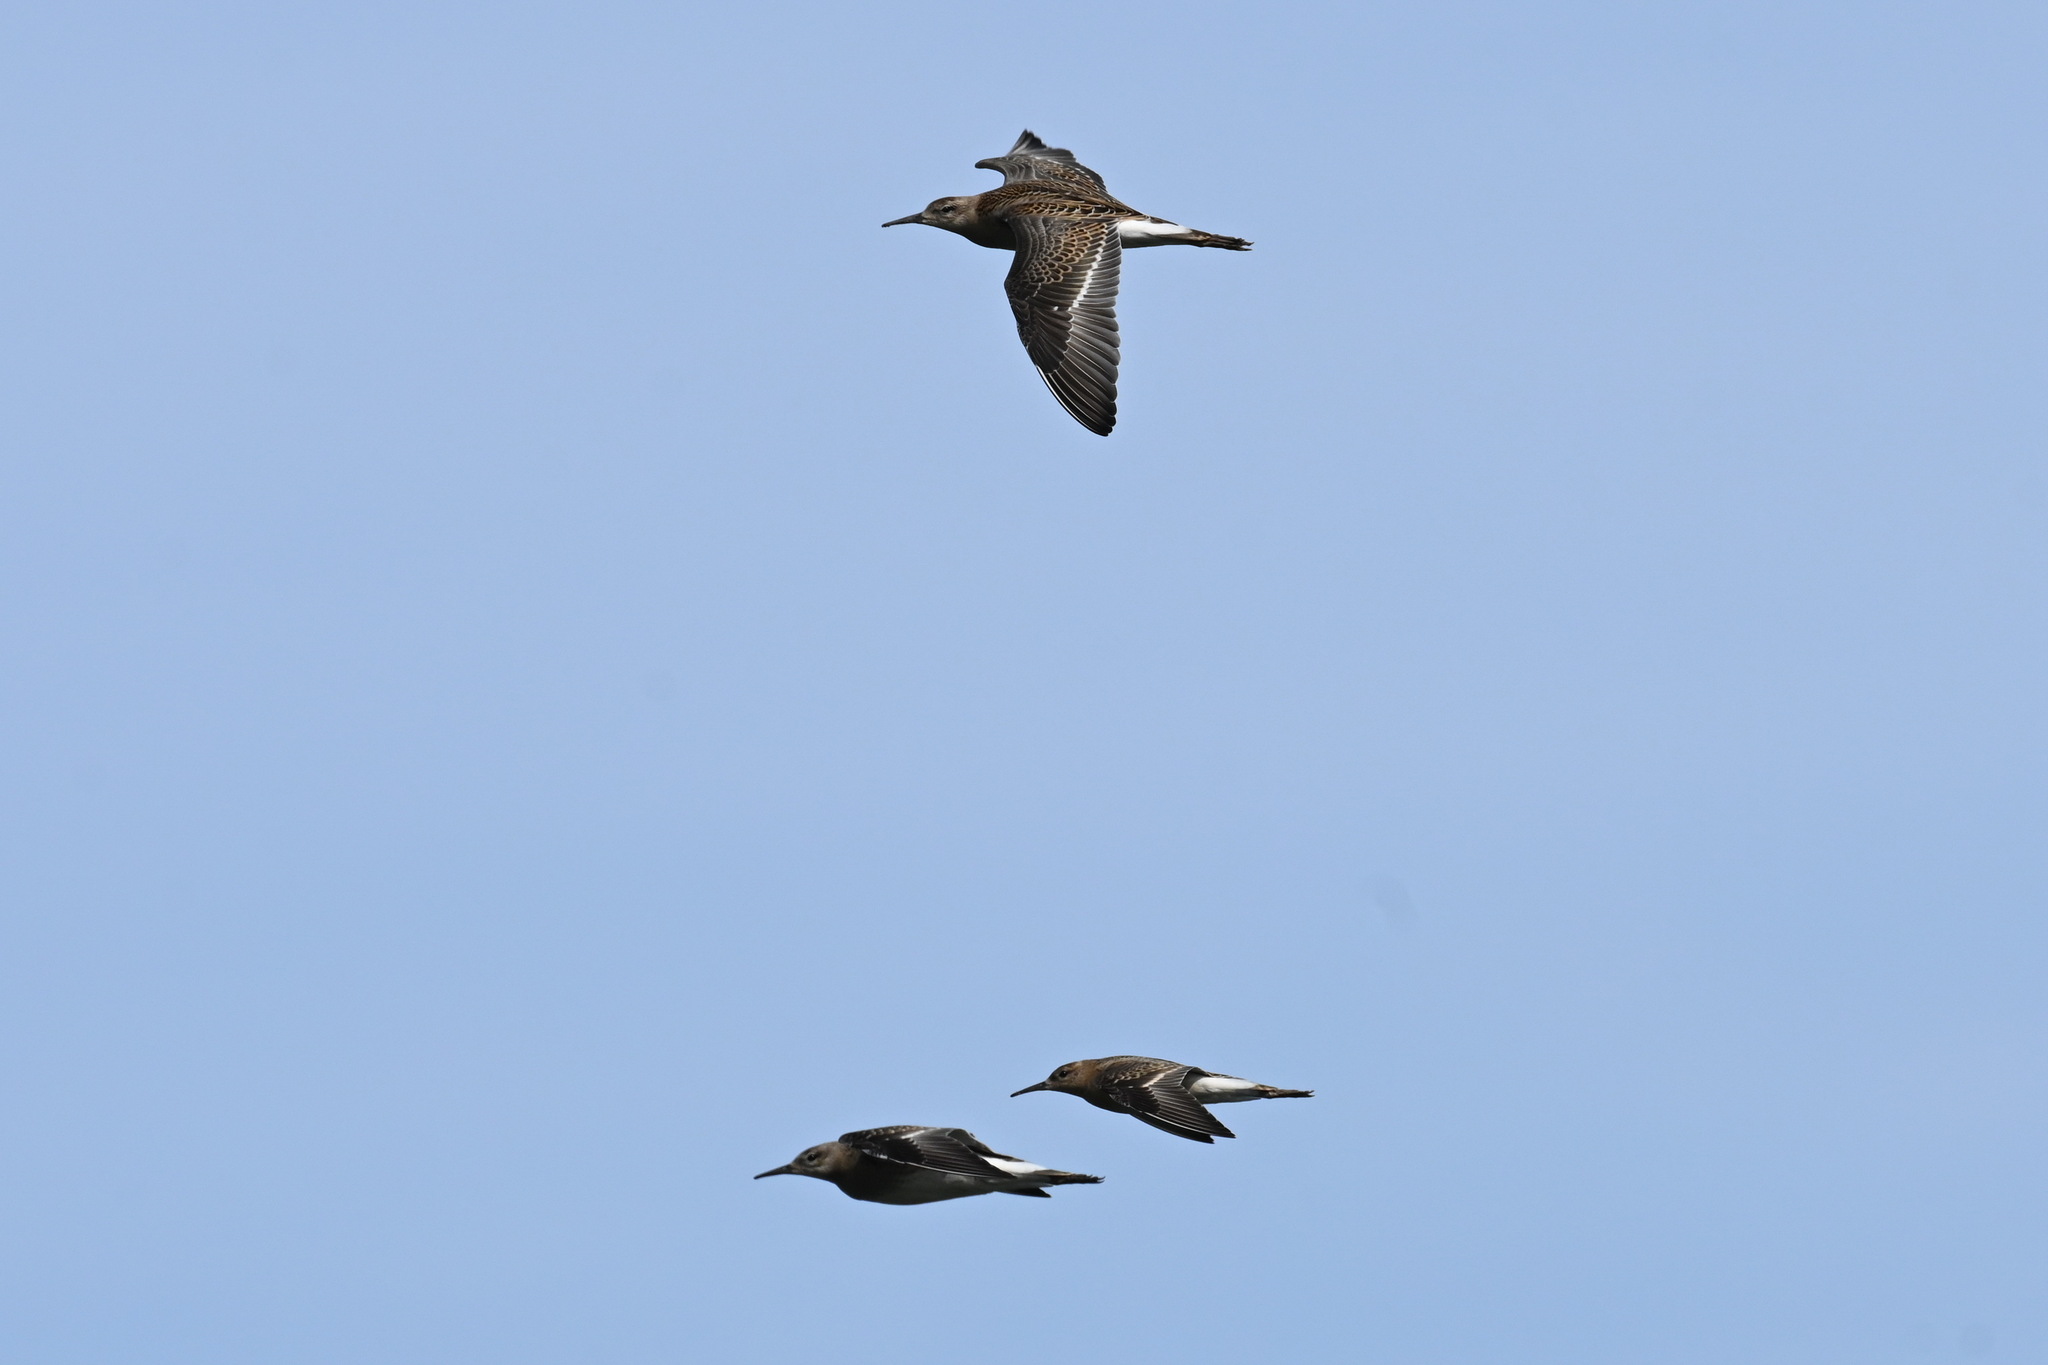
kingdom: Animalia
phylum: Chordata
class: Aves
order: Charadriiformes
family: Scolopacidae
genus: Calidris
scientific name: Calidris pugnax
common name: Ruff
